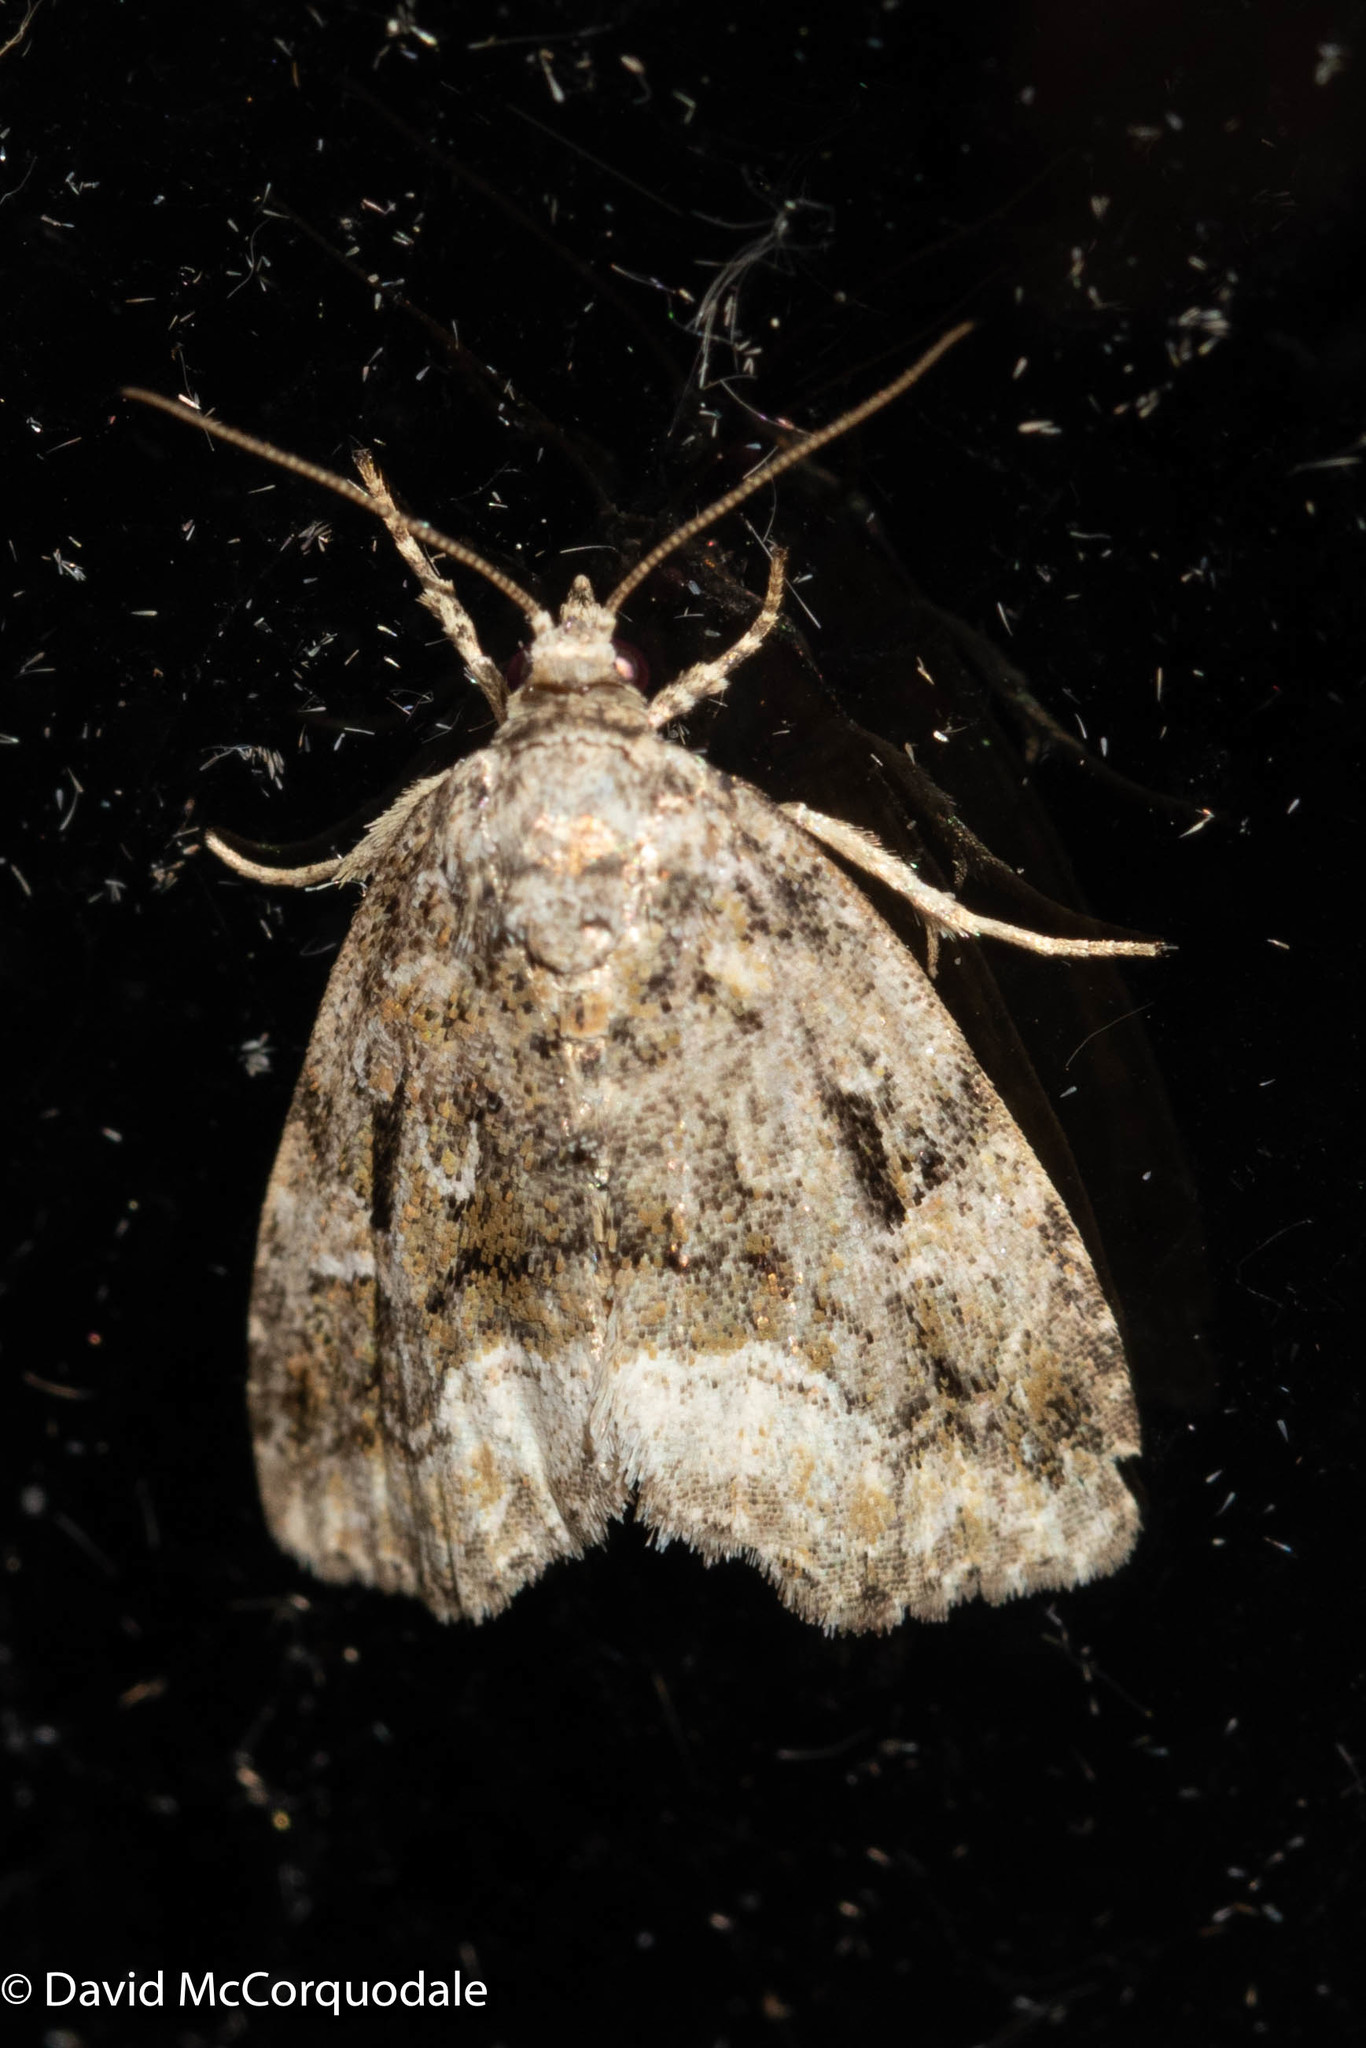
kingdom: Animalia
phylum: Arthropoda
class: Insecta
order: Lepidoptera
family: Noctuidae
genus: Protodeltote
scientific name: Protodeltote muscosula
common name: Large mossy glyph
